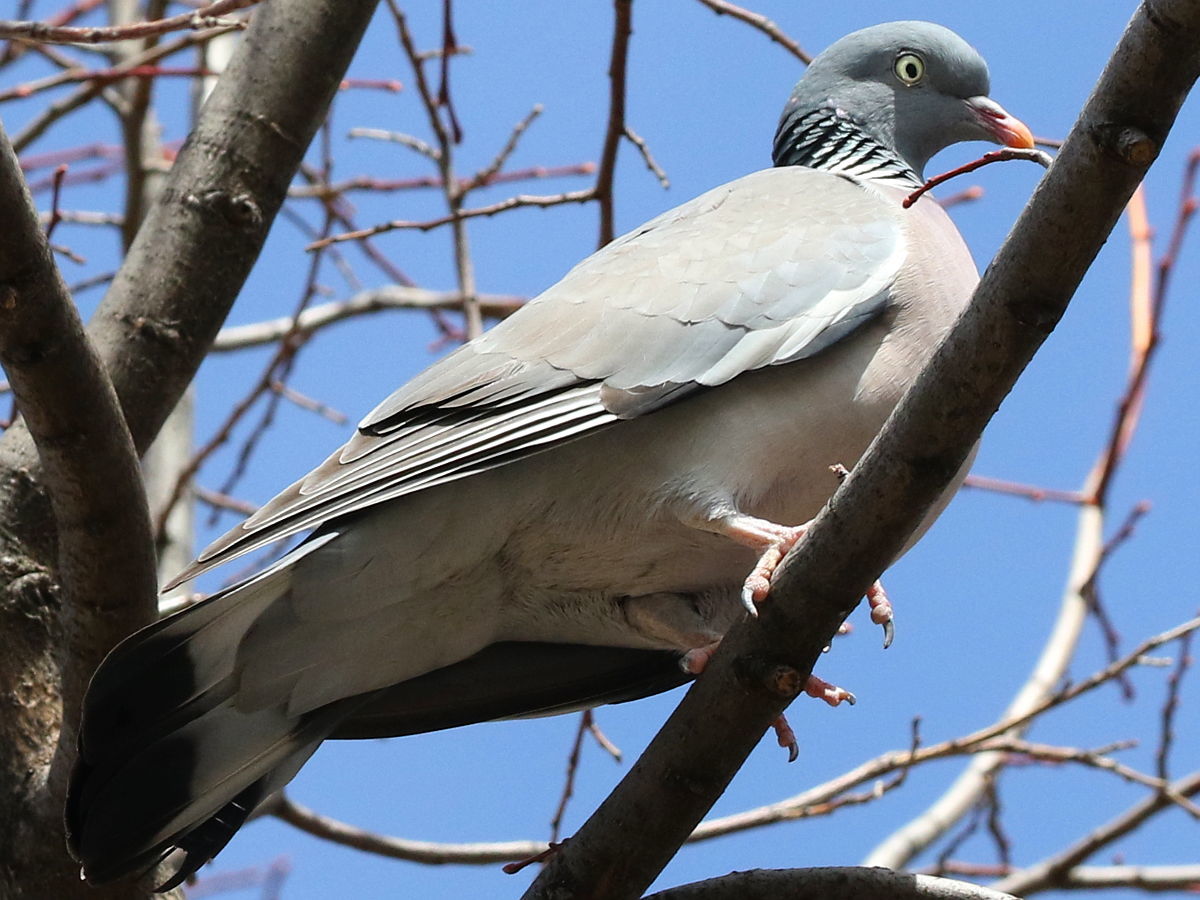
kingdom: Animalia
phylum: Chordata
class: Aves
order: Columbiformes
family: Columbidae
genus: Columba
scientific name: Columba palumbus
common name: Common wood pigeon
